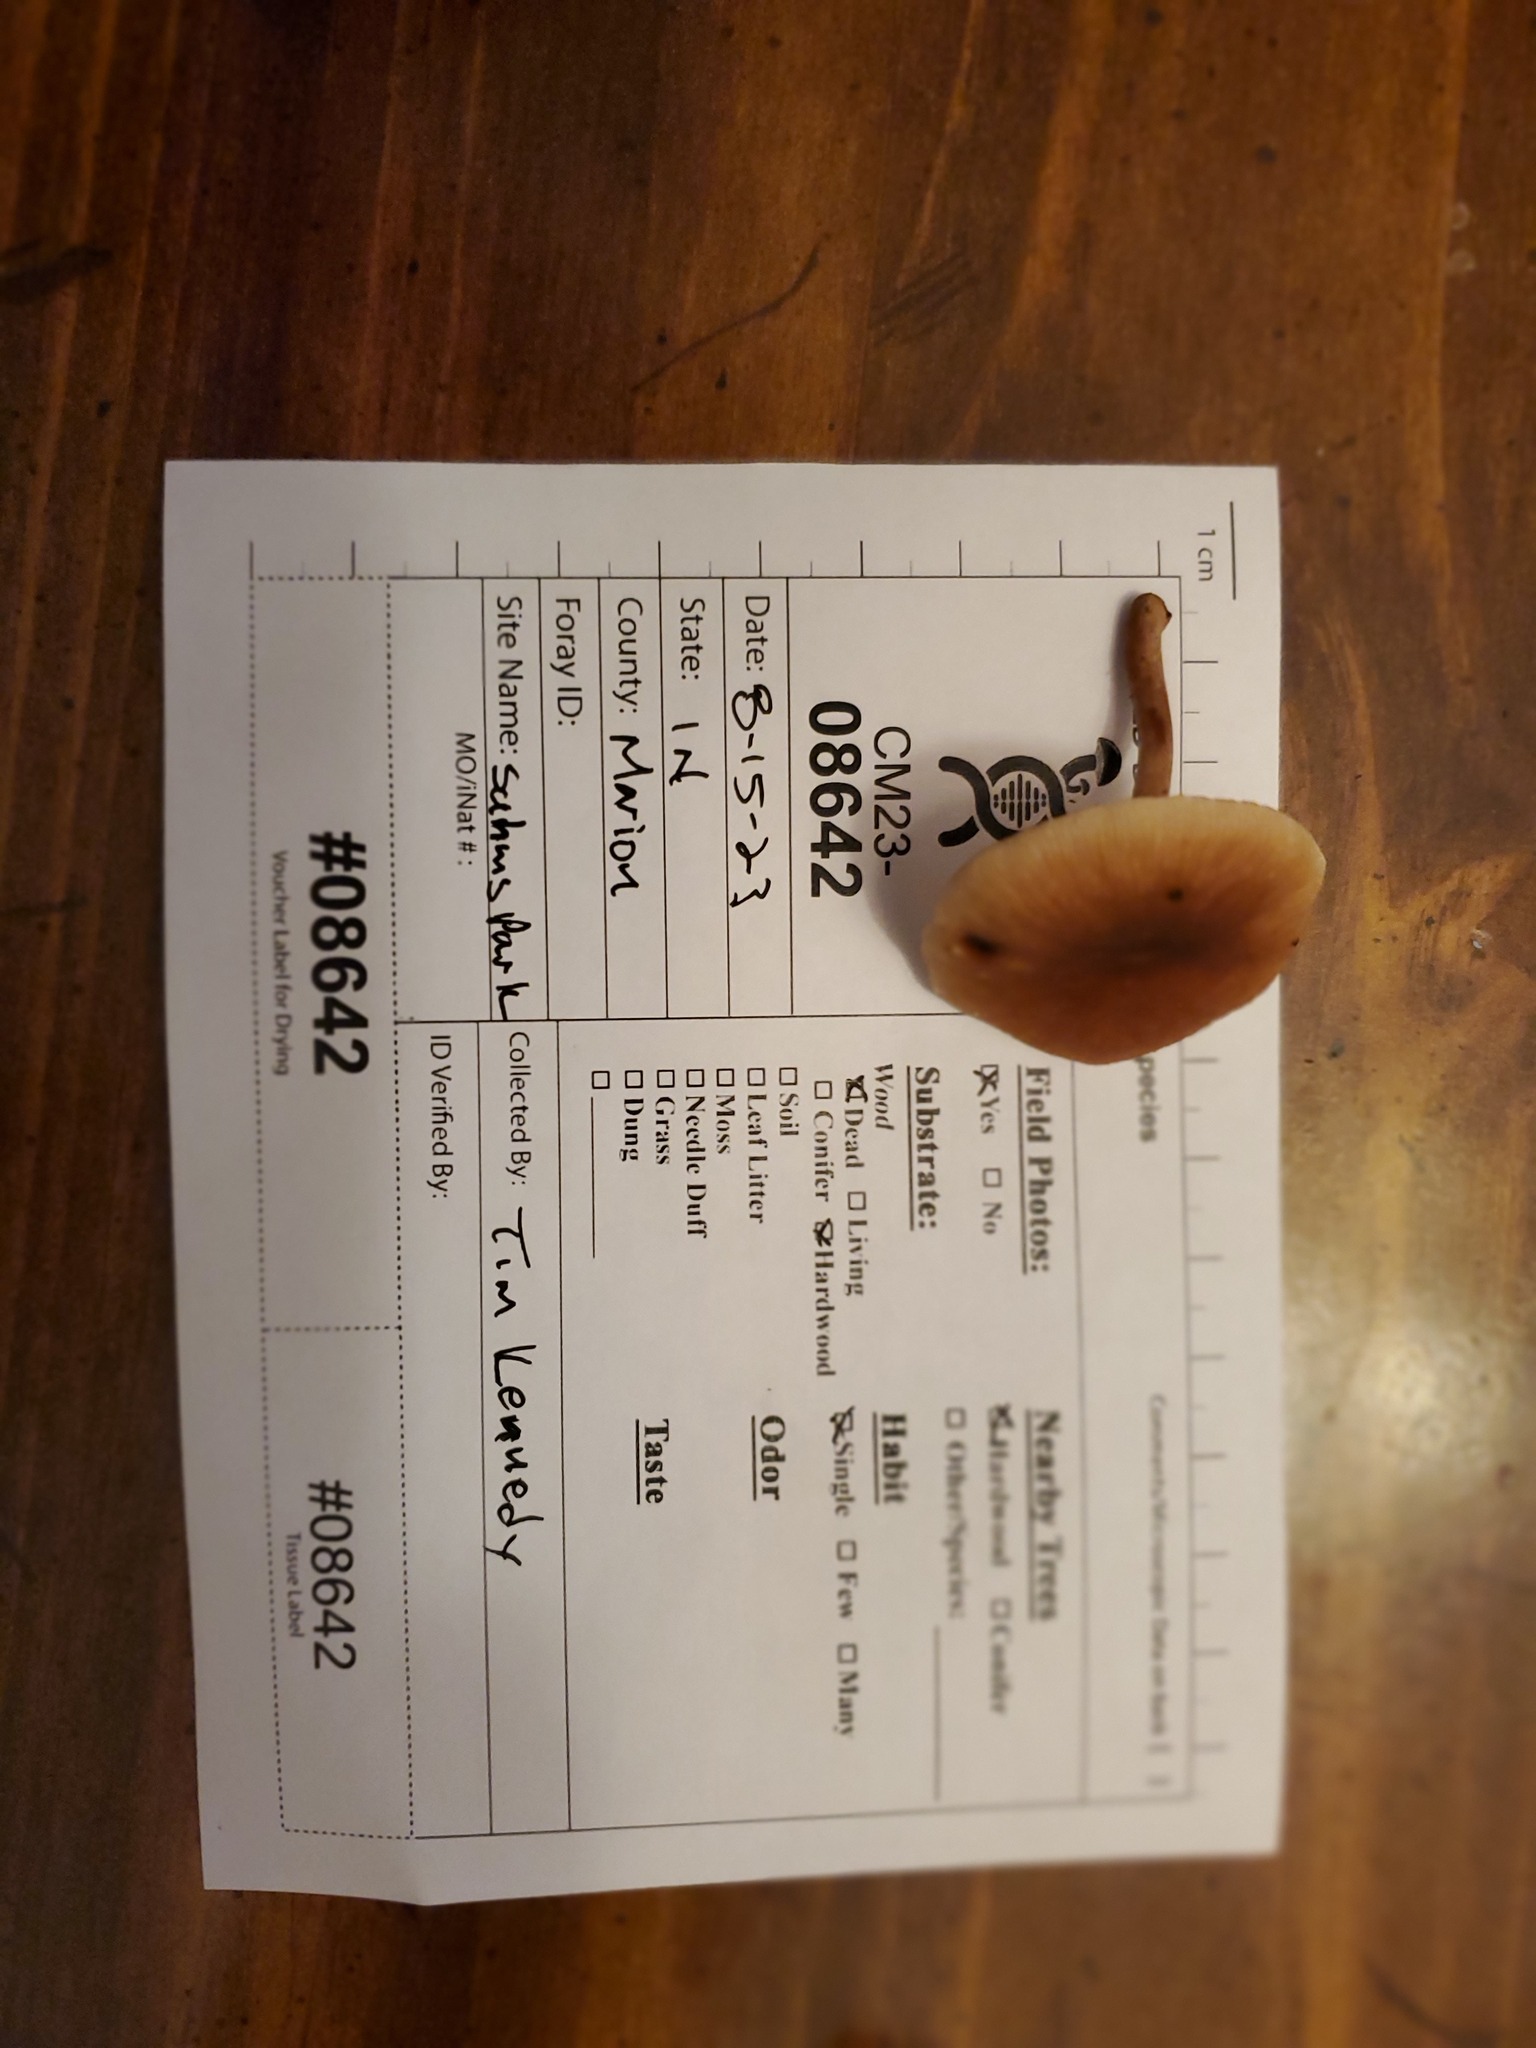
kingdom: Fungi
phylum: Basidiomycota
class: Agaricomycetes
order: Agaricales
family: Omphalotaceae
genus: Collybiopsis
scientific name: Collybiopsis dichroa
